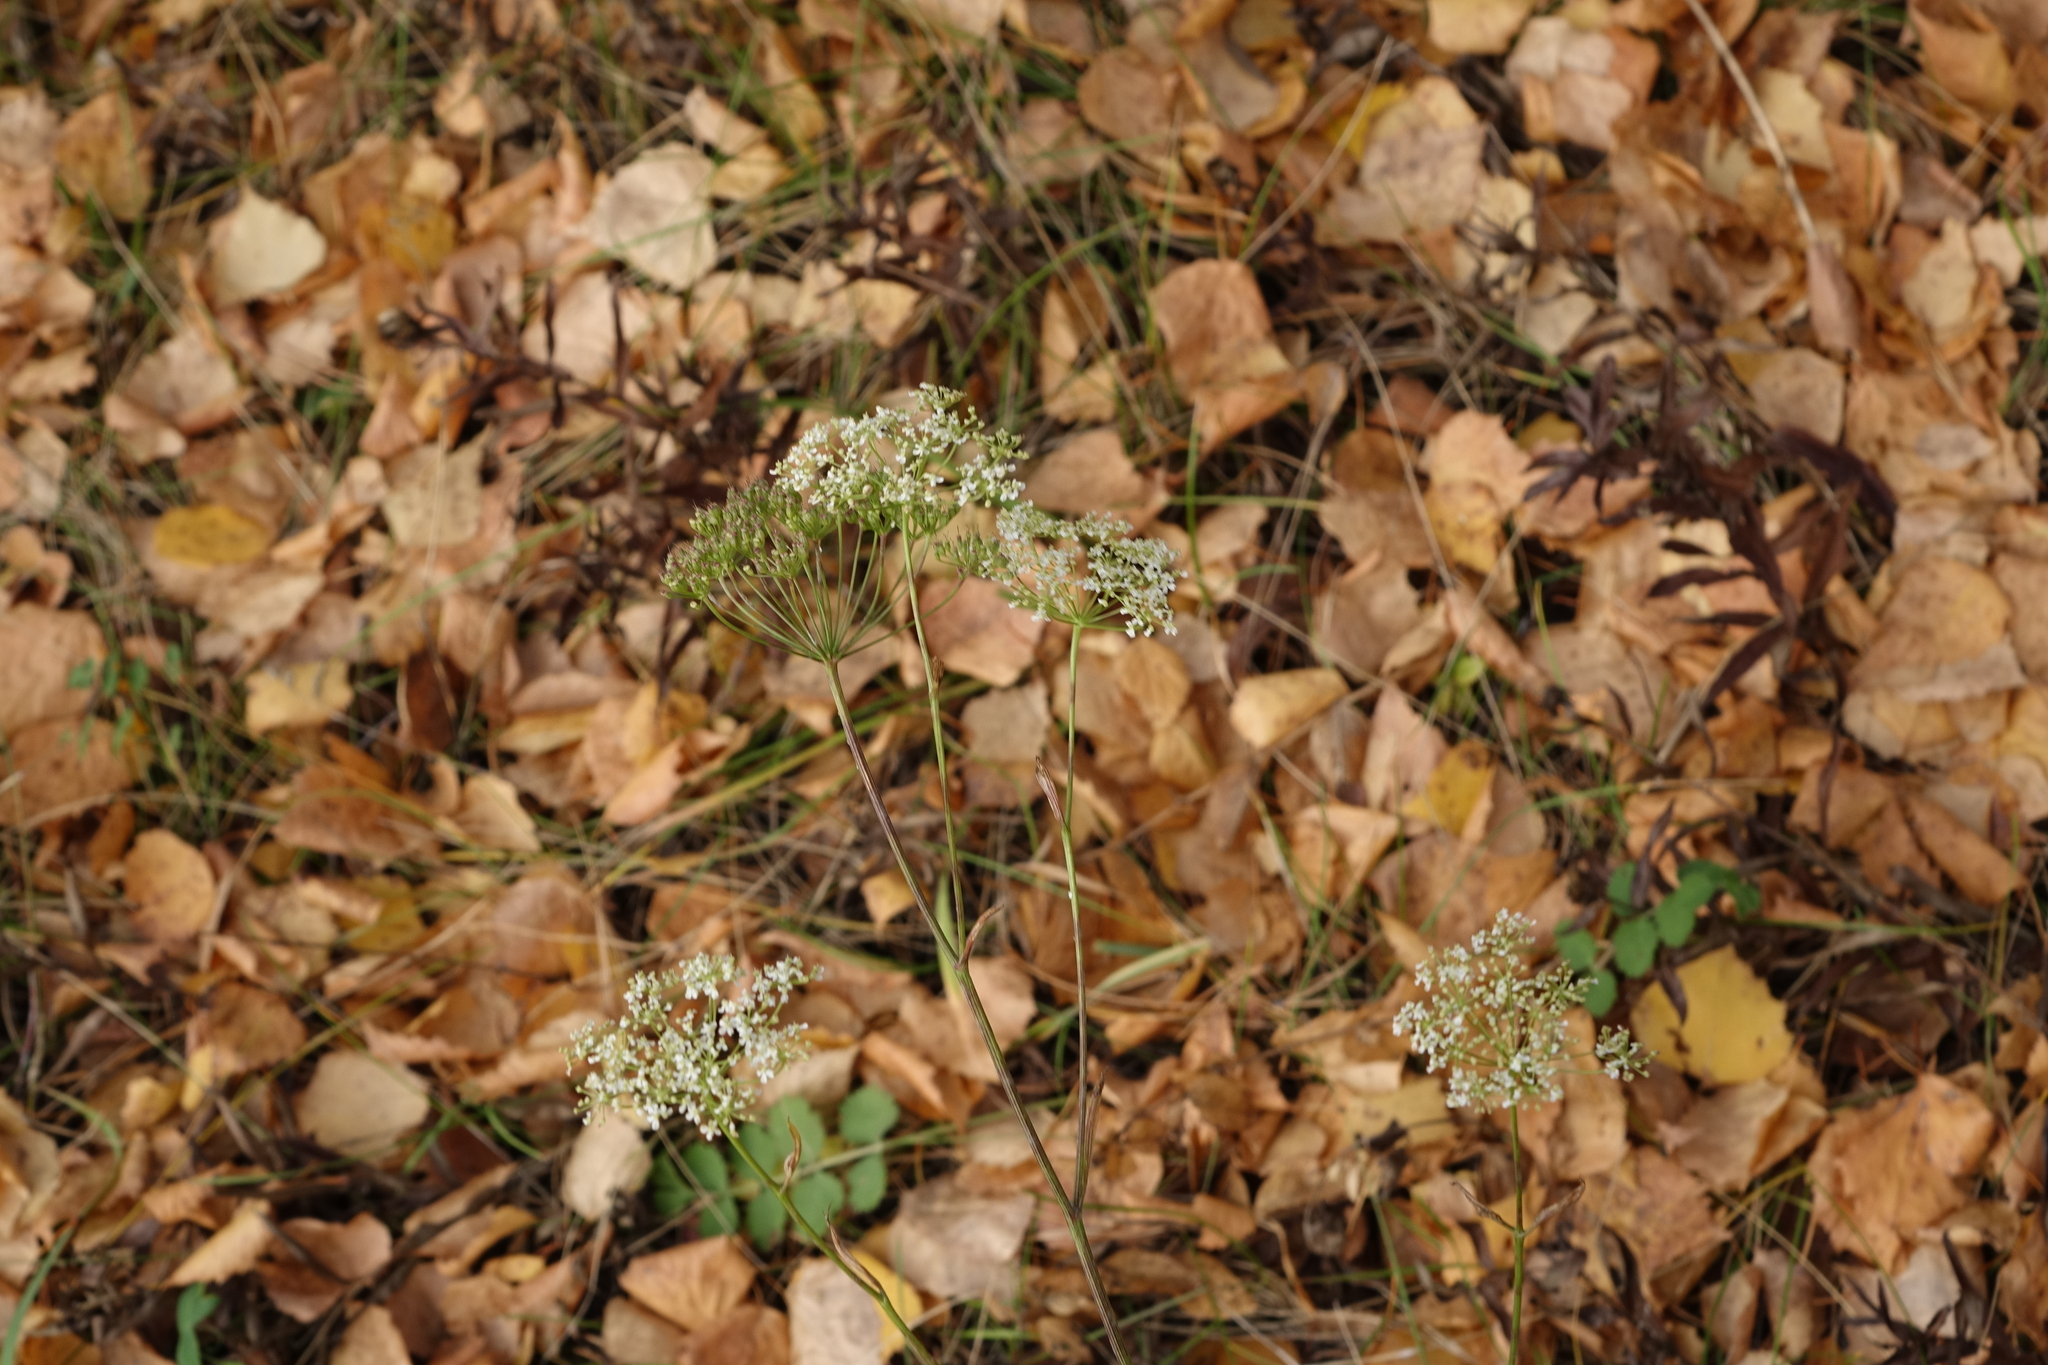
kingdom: Plantae
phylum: Tracheophyta
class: Magnoliopsida
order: Apiales
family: Apiaceae
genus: Pimpinella
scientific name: Pimpinella saxifraga
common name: Burnet-saxifrage
